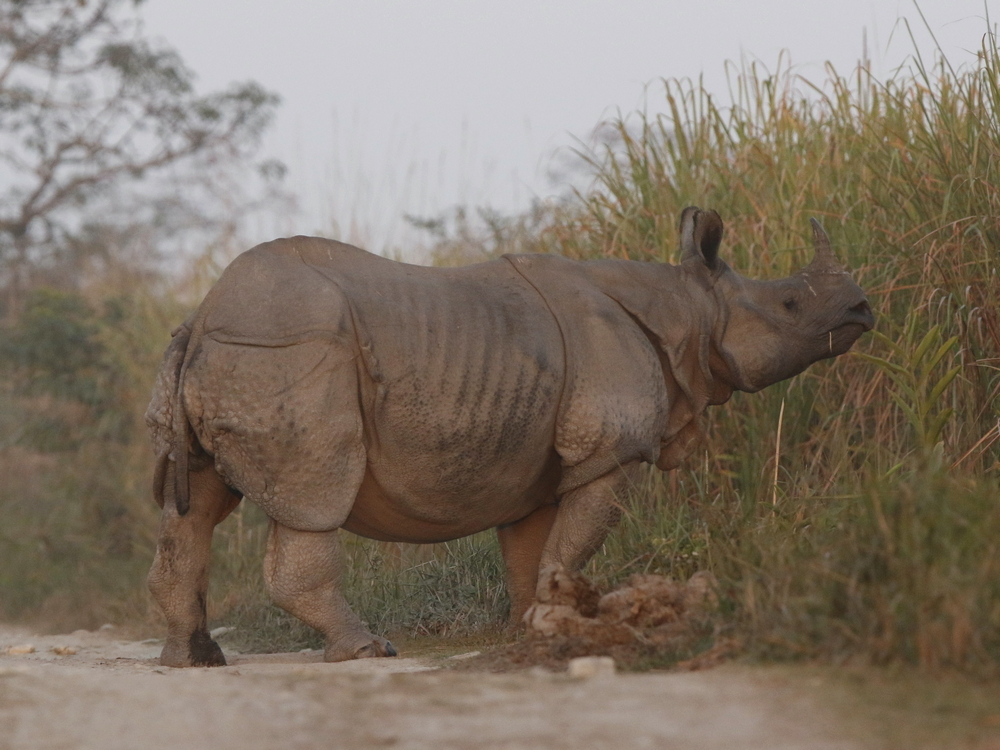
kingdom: Animalia
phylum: Chordata
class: Mammalia
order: Perissodactyla
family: Rhinocerotidae
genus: Rhinoceros
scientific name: Rhinoceros unicornis
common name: Indian rhinoceros
